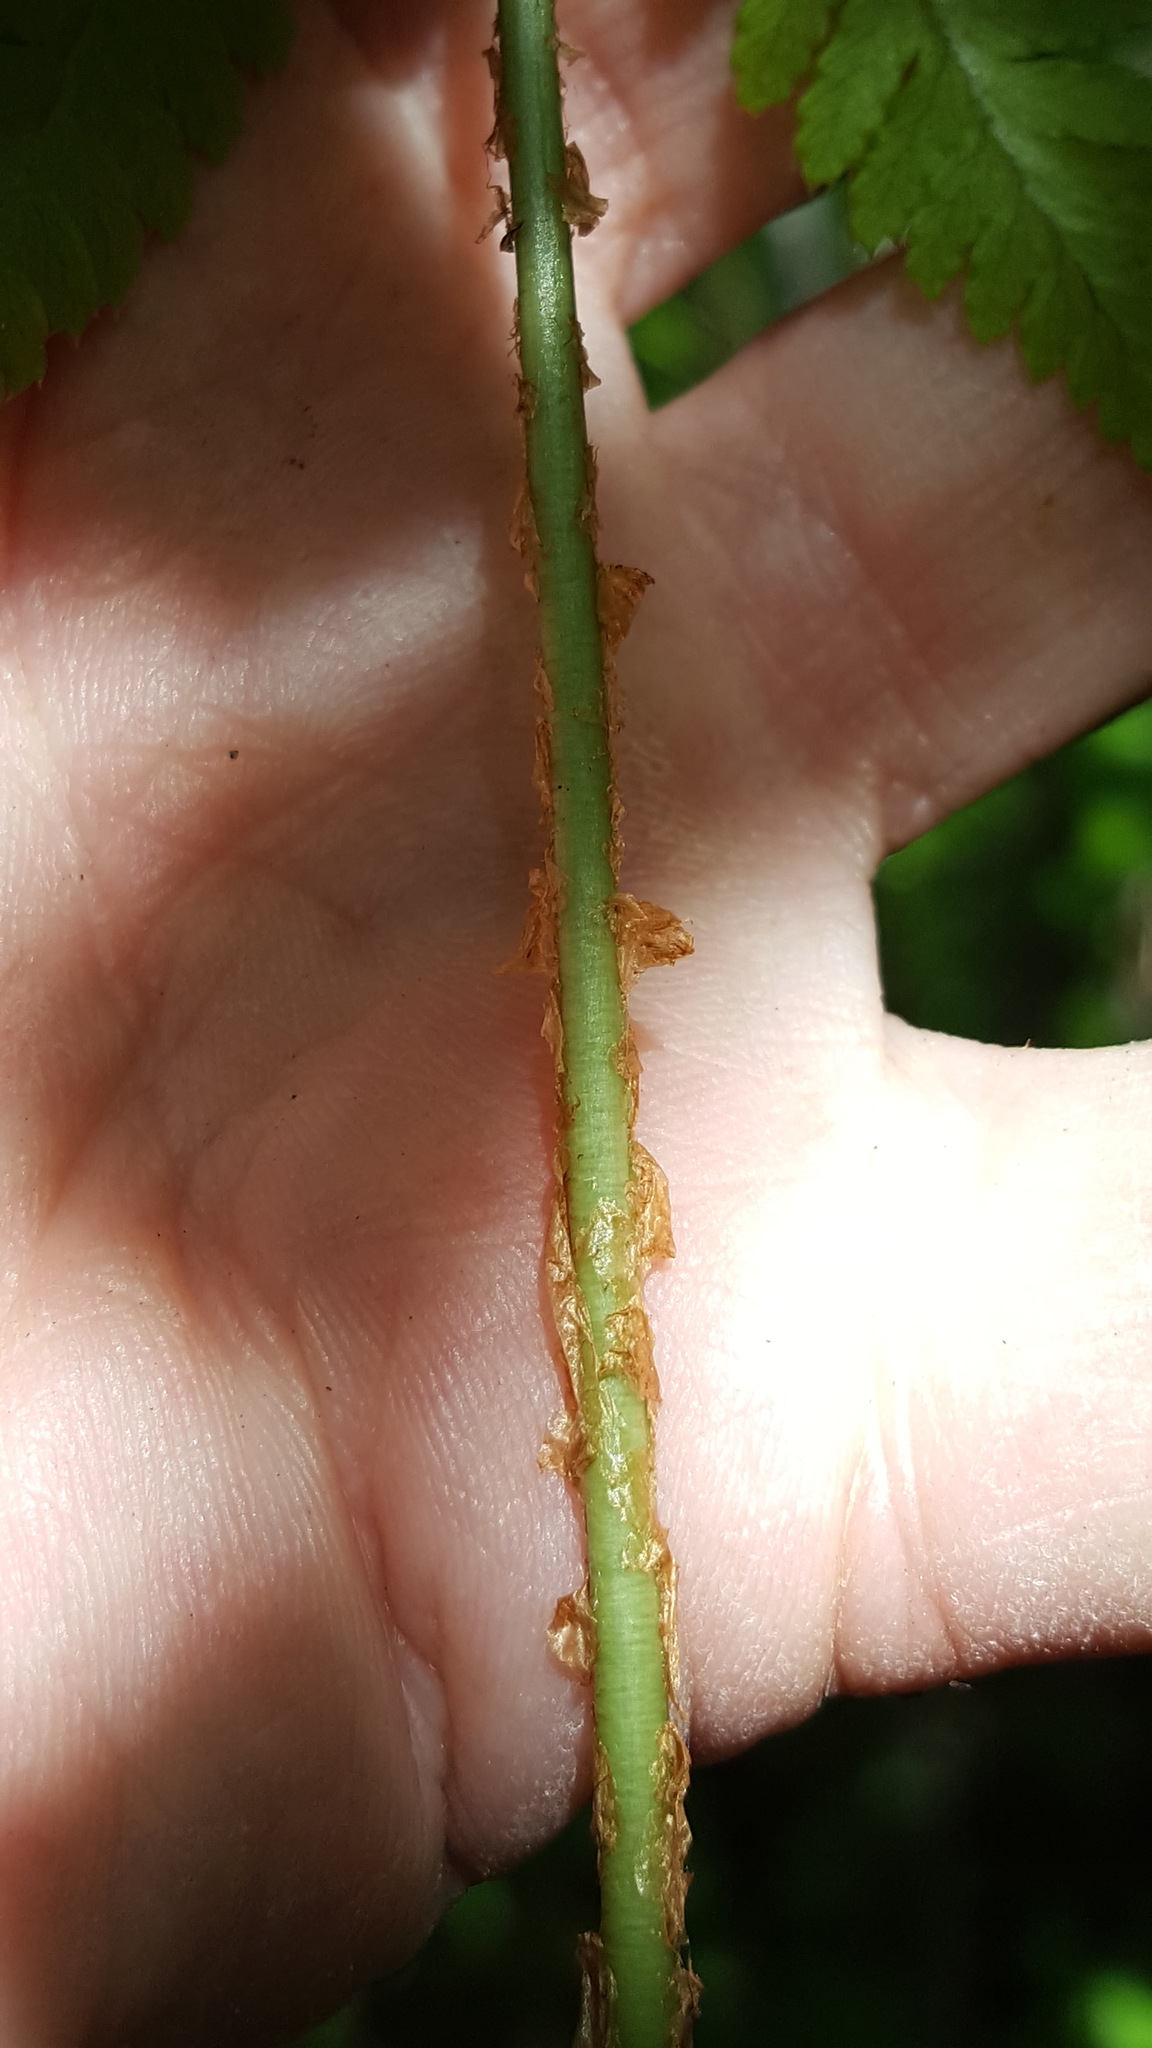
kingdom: Plantae
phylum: Tracheophyta
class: Polypodiopsida
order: Polypodiales
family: Dryopteridaceae
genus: Dryopteris
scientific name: Dryopteris carthusiana
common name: Narrow buckler-fern
